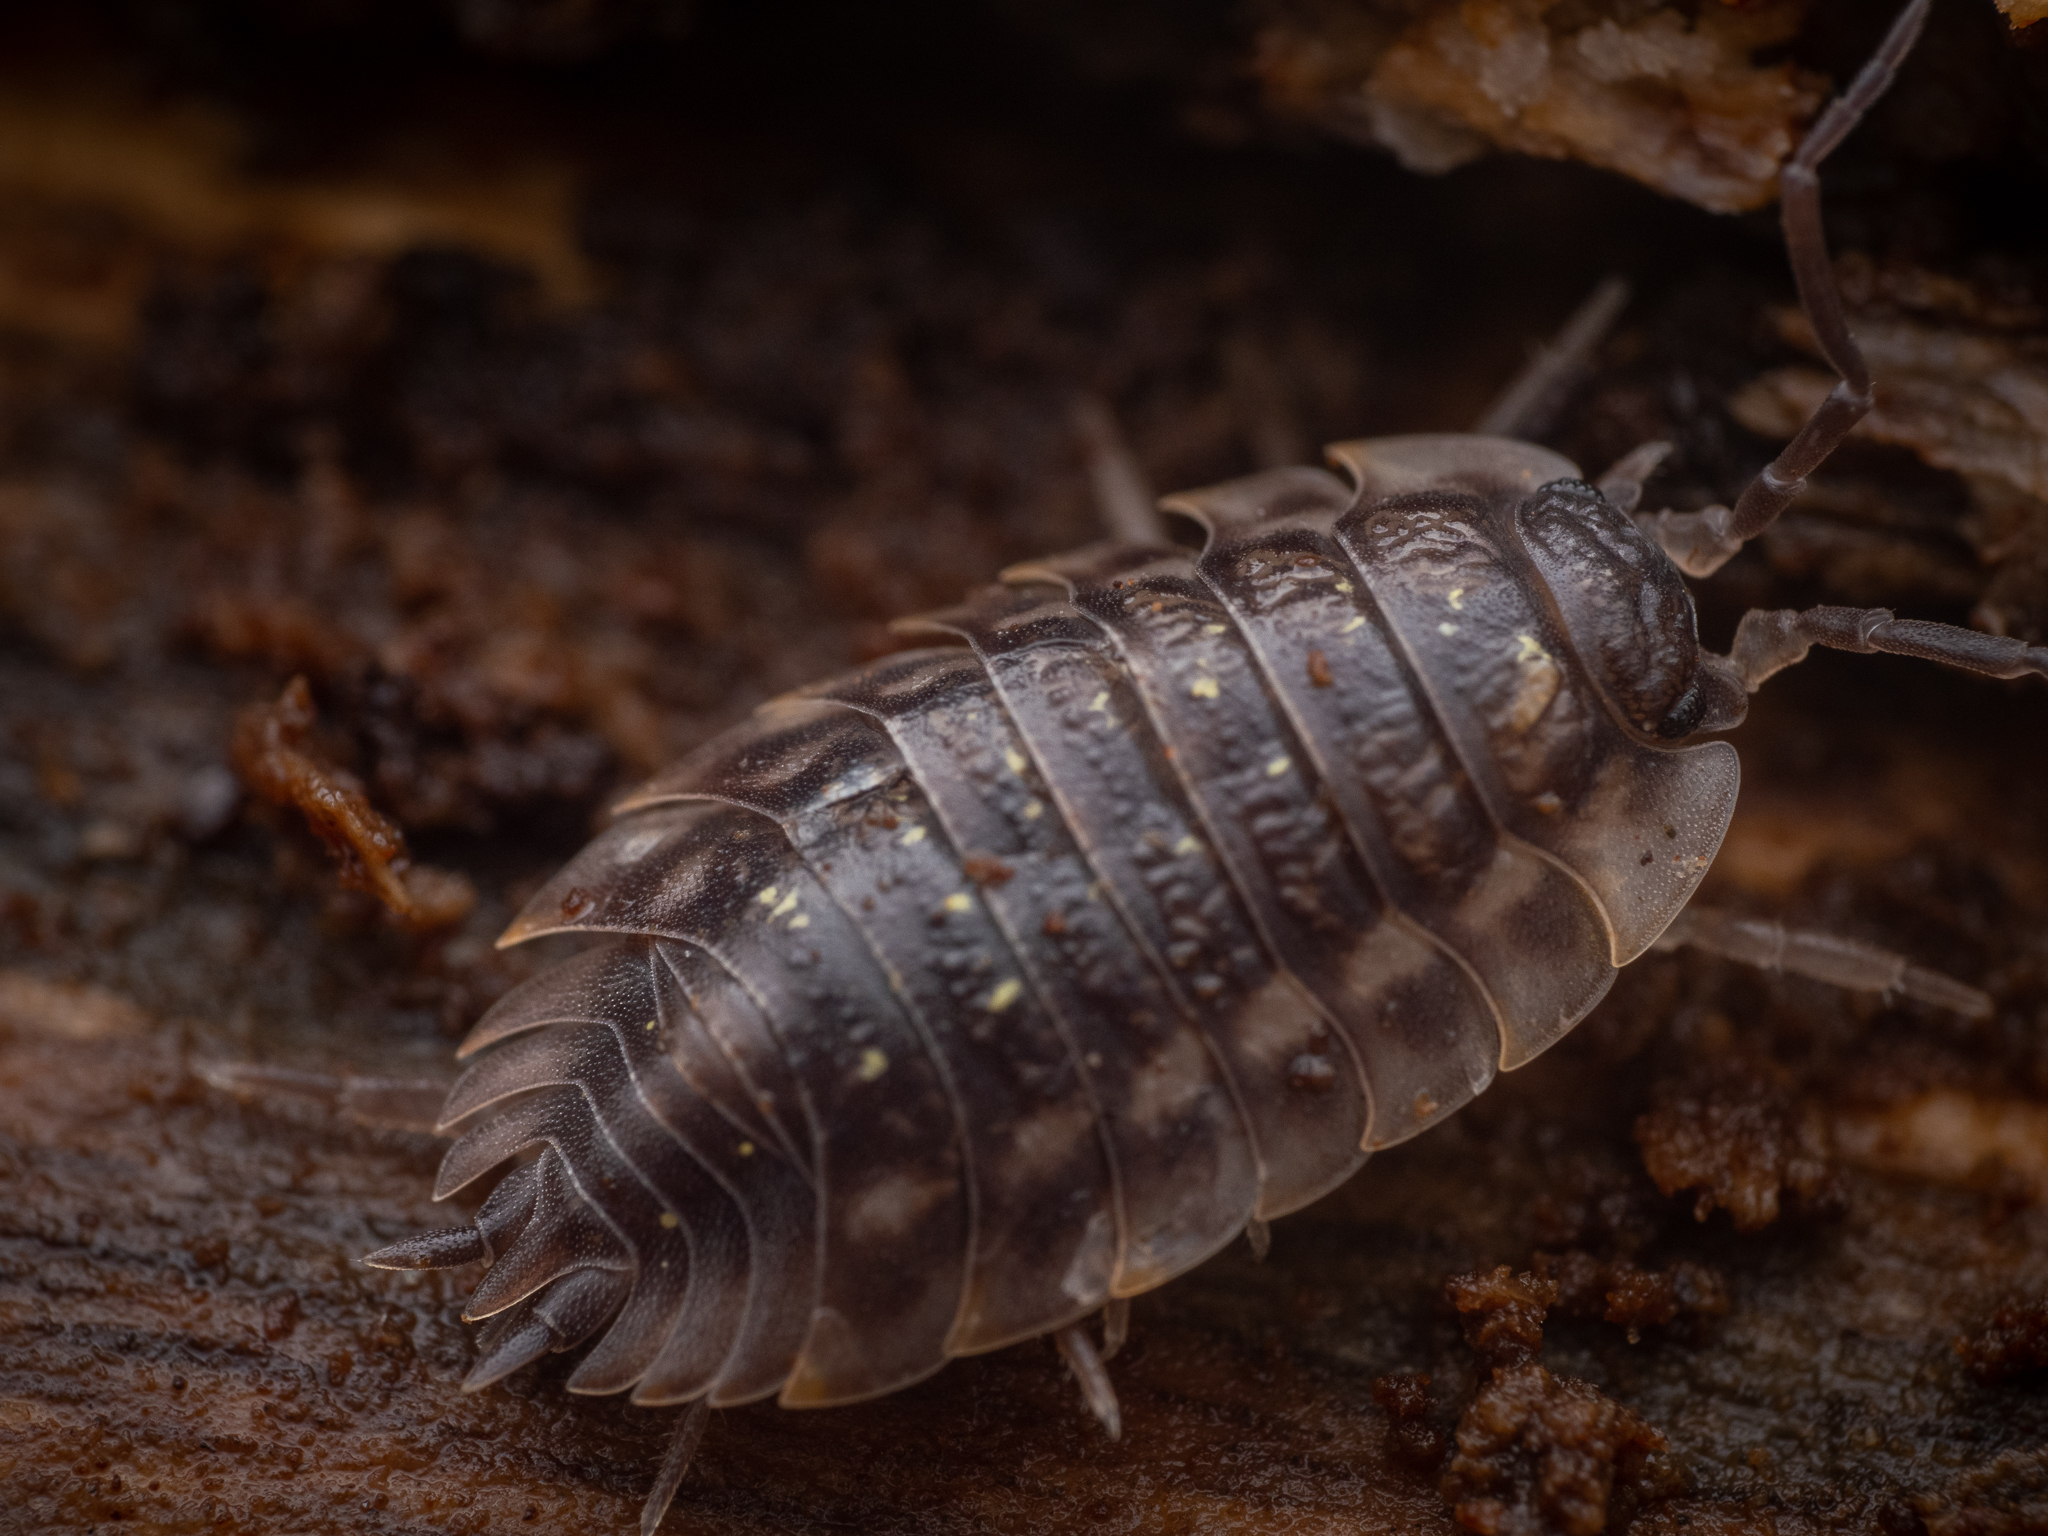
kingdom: Animalia
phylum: Arthropoda
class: Malacostraca
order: Isopoda
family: Oniscidae
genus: Oniscus
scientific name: Oniscus asellus
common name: Common shiny woodlouse
